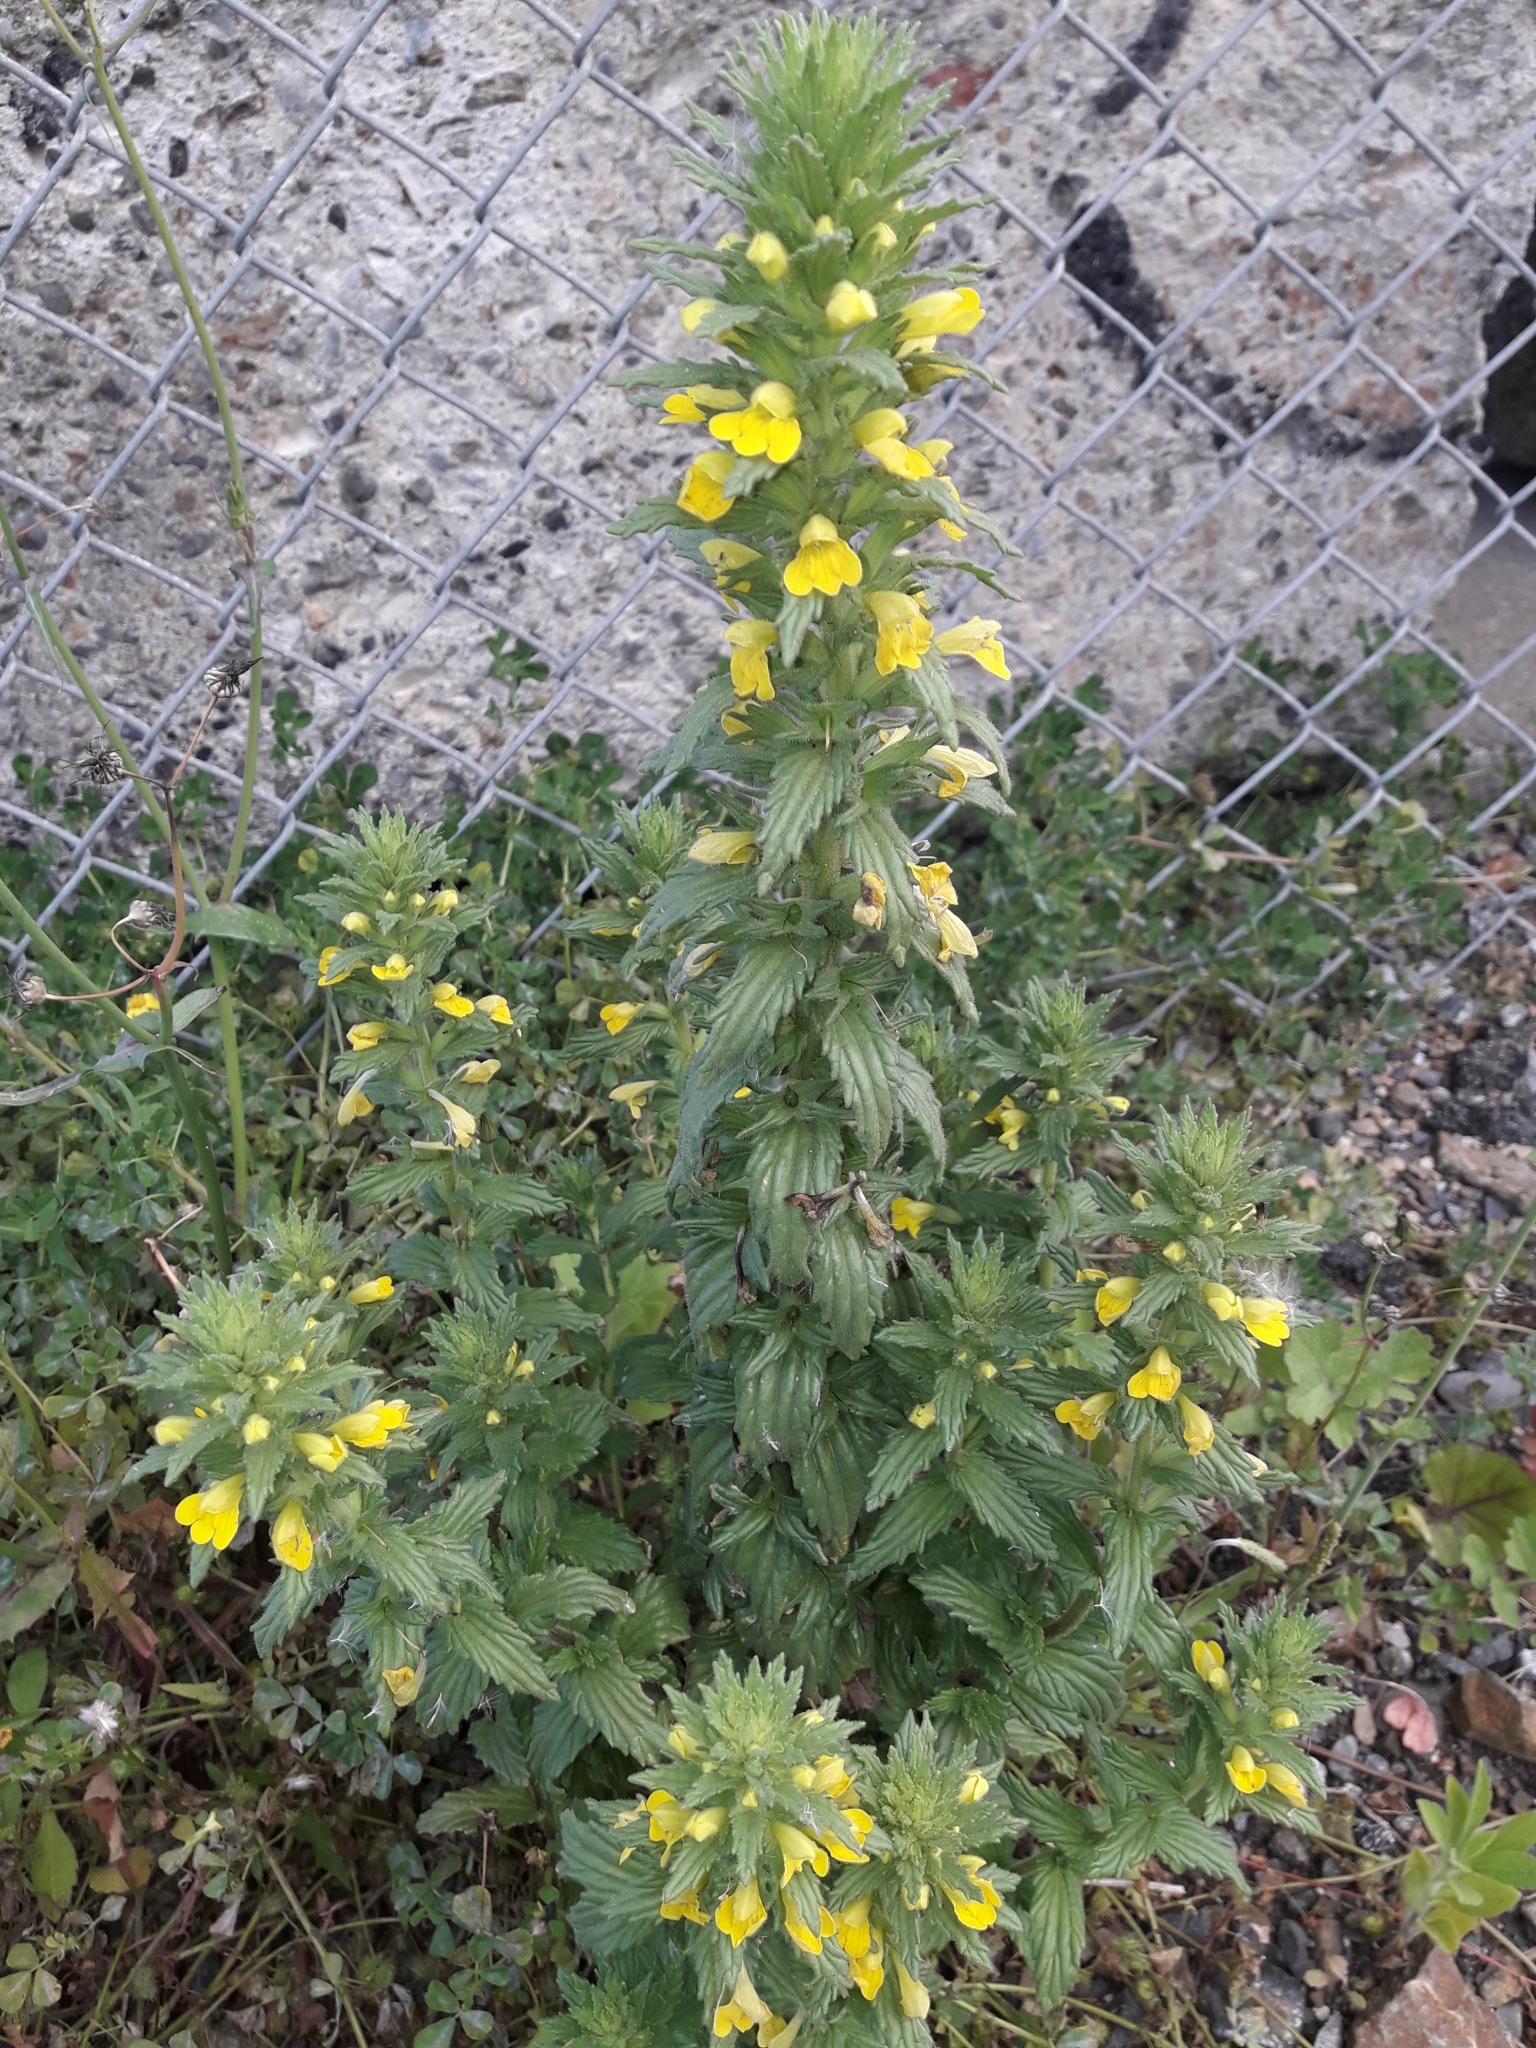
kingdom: Plantae
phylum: Tracheophyta
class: Magnoliopsida
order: Lamiales
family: Orobanchaceae
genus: Bellardia
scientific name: Bellardia viscosa
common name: Sticky parentucellia
